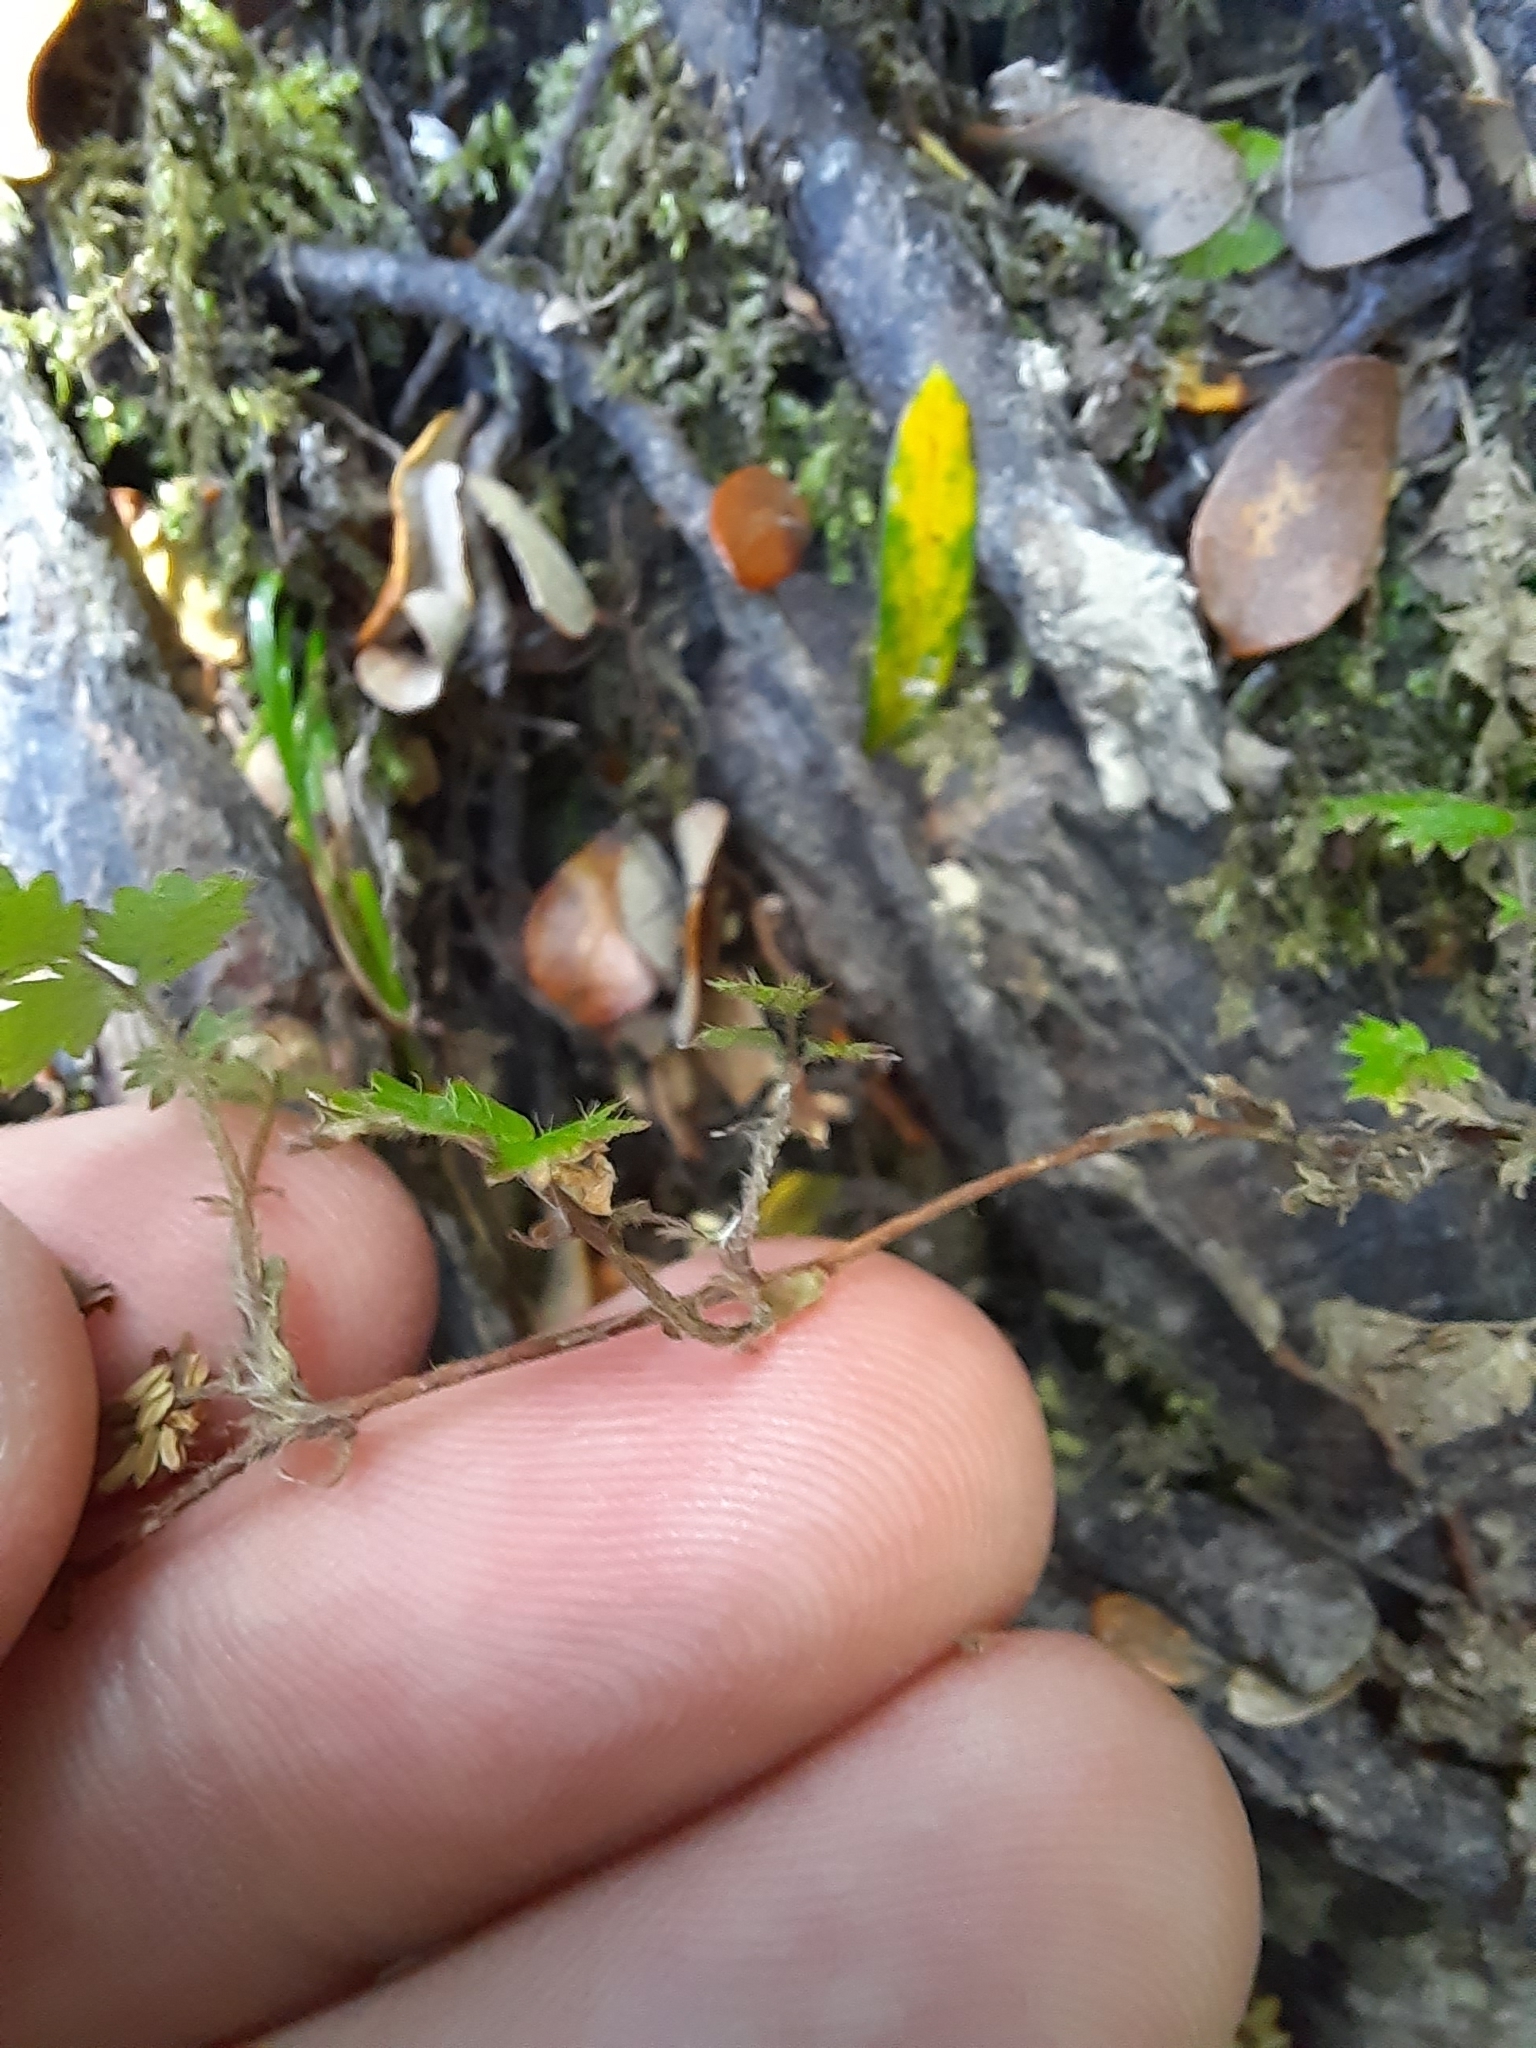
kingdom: Plantae
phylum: Tracheophyta
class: Magnoliopsida
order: Rosales
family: Rosaceae
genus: Acaena
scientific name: Acaena juvenca
